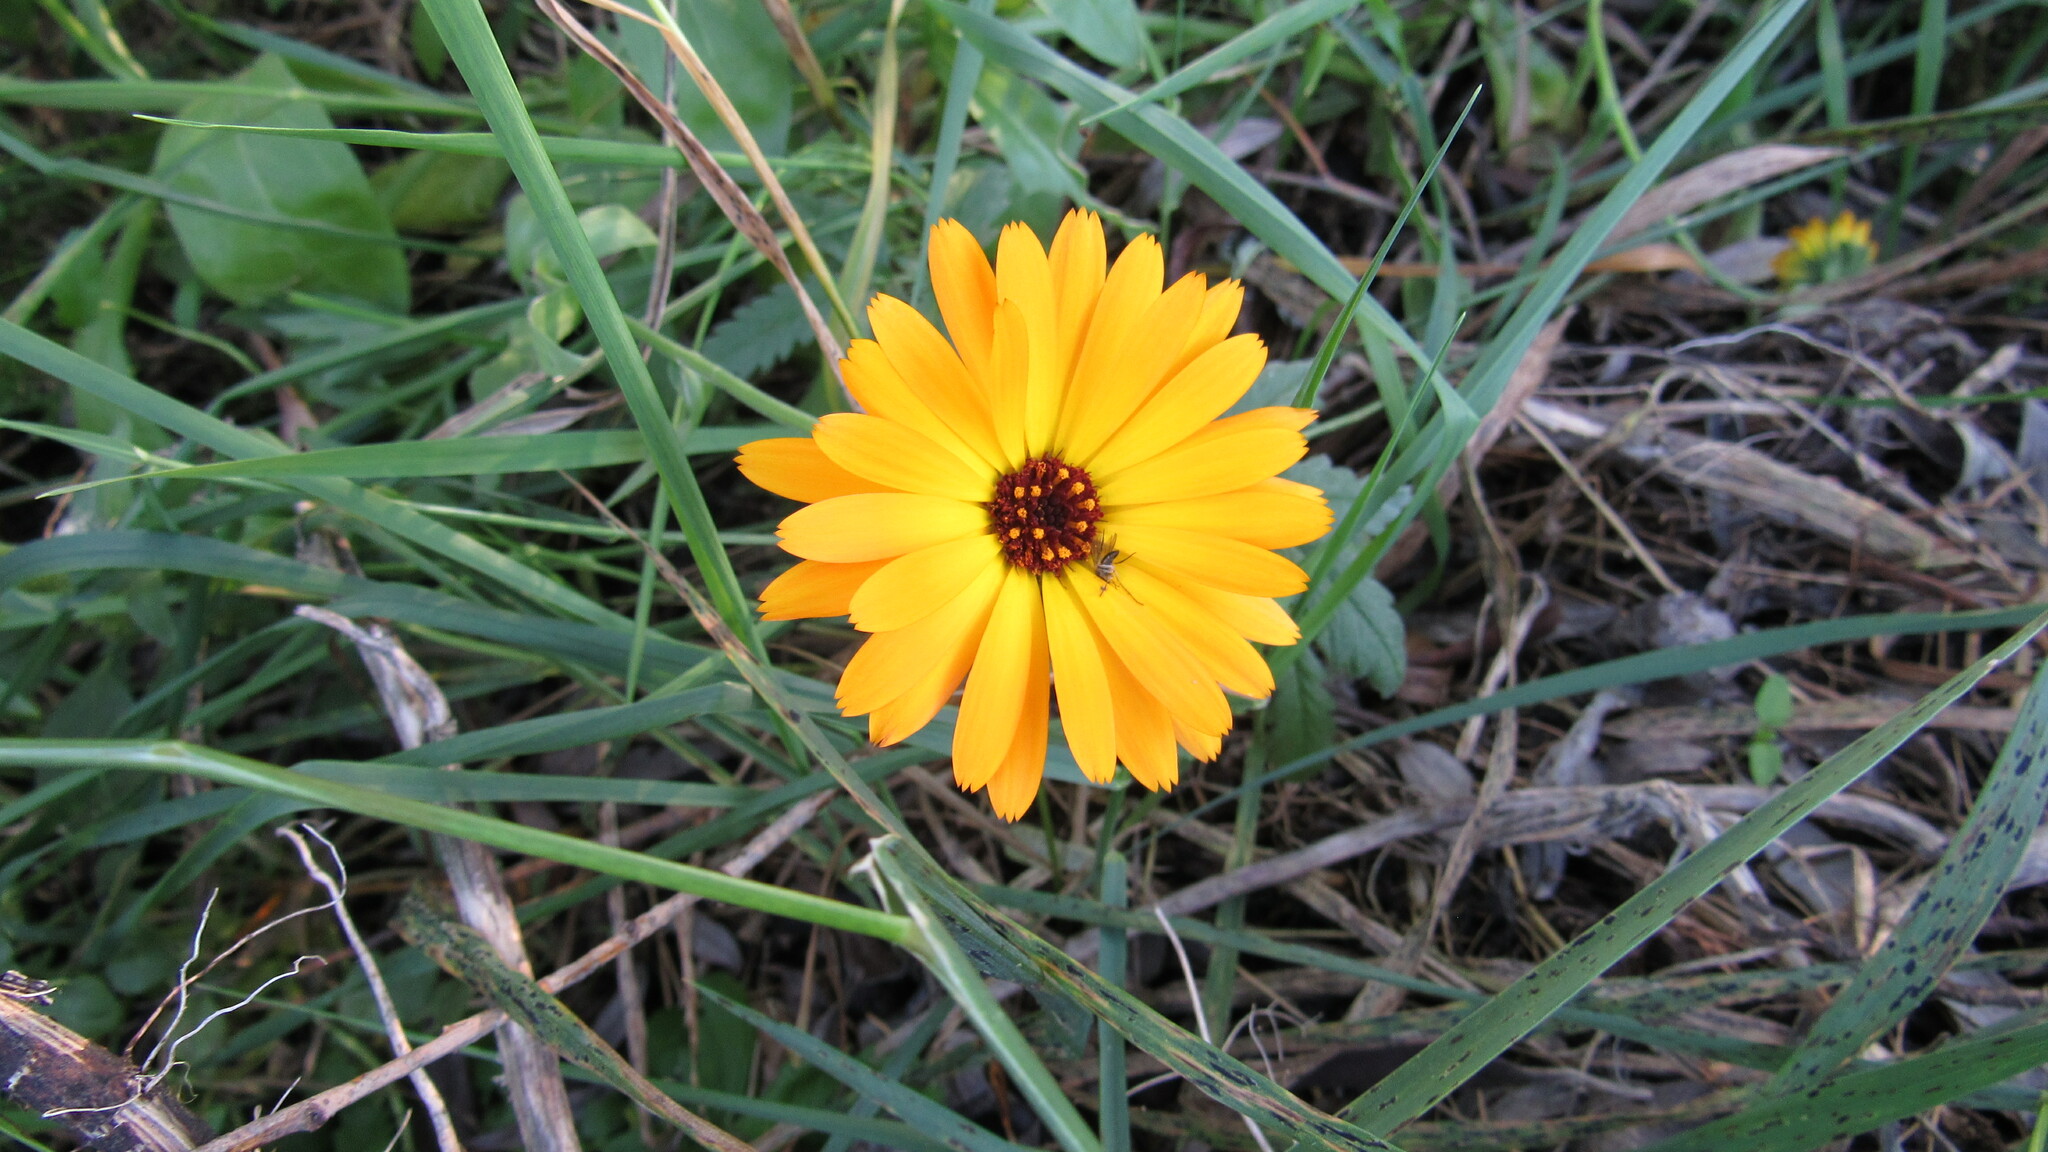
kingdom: Plantae
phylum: Tracheophyta
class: Magnoliopsida
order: Asterales
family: Asteraceae
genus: Calendula
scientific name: Calendula officinalis
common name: Pot marigold
